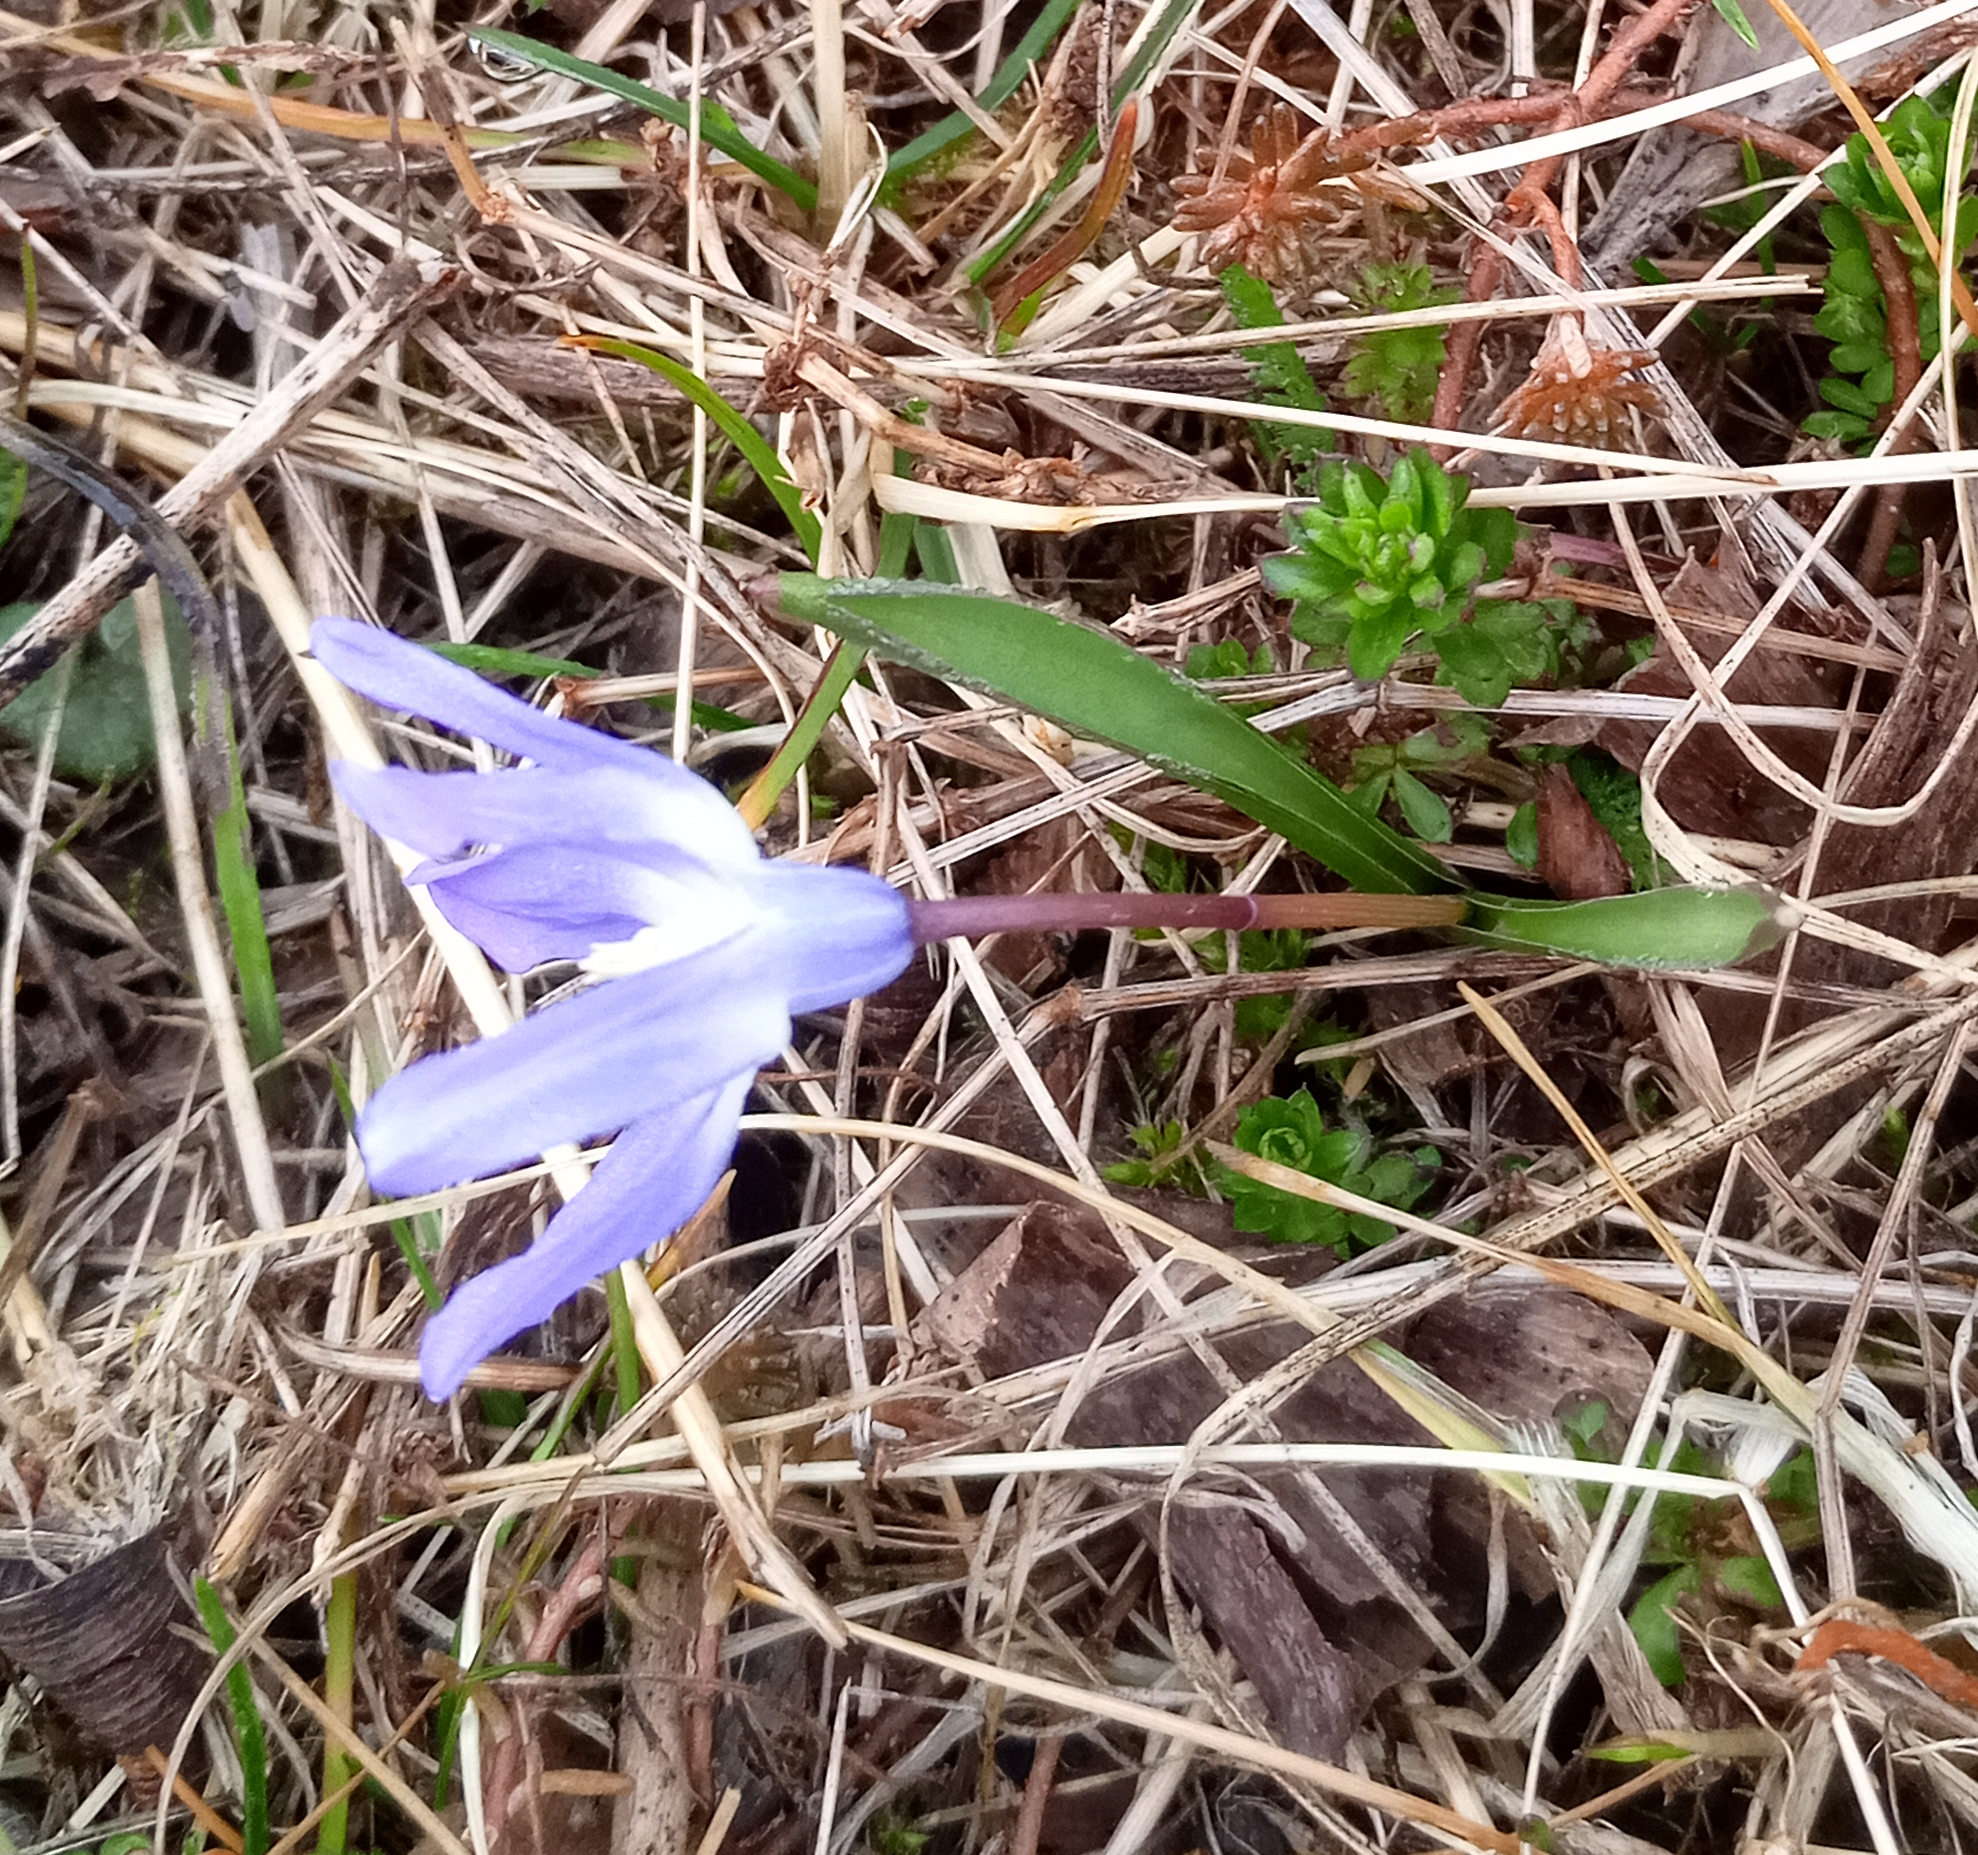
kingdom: Plantae
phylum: Tracheophyta
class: Liliopsida
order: Asparagales
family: Asparagaceae
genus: Scilla
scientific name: Scilla luciliae
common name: Boissier's glory-of-the-snow
